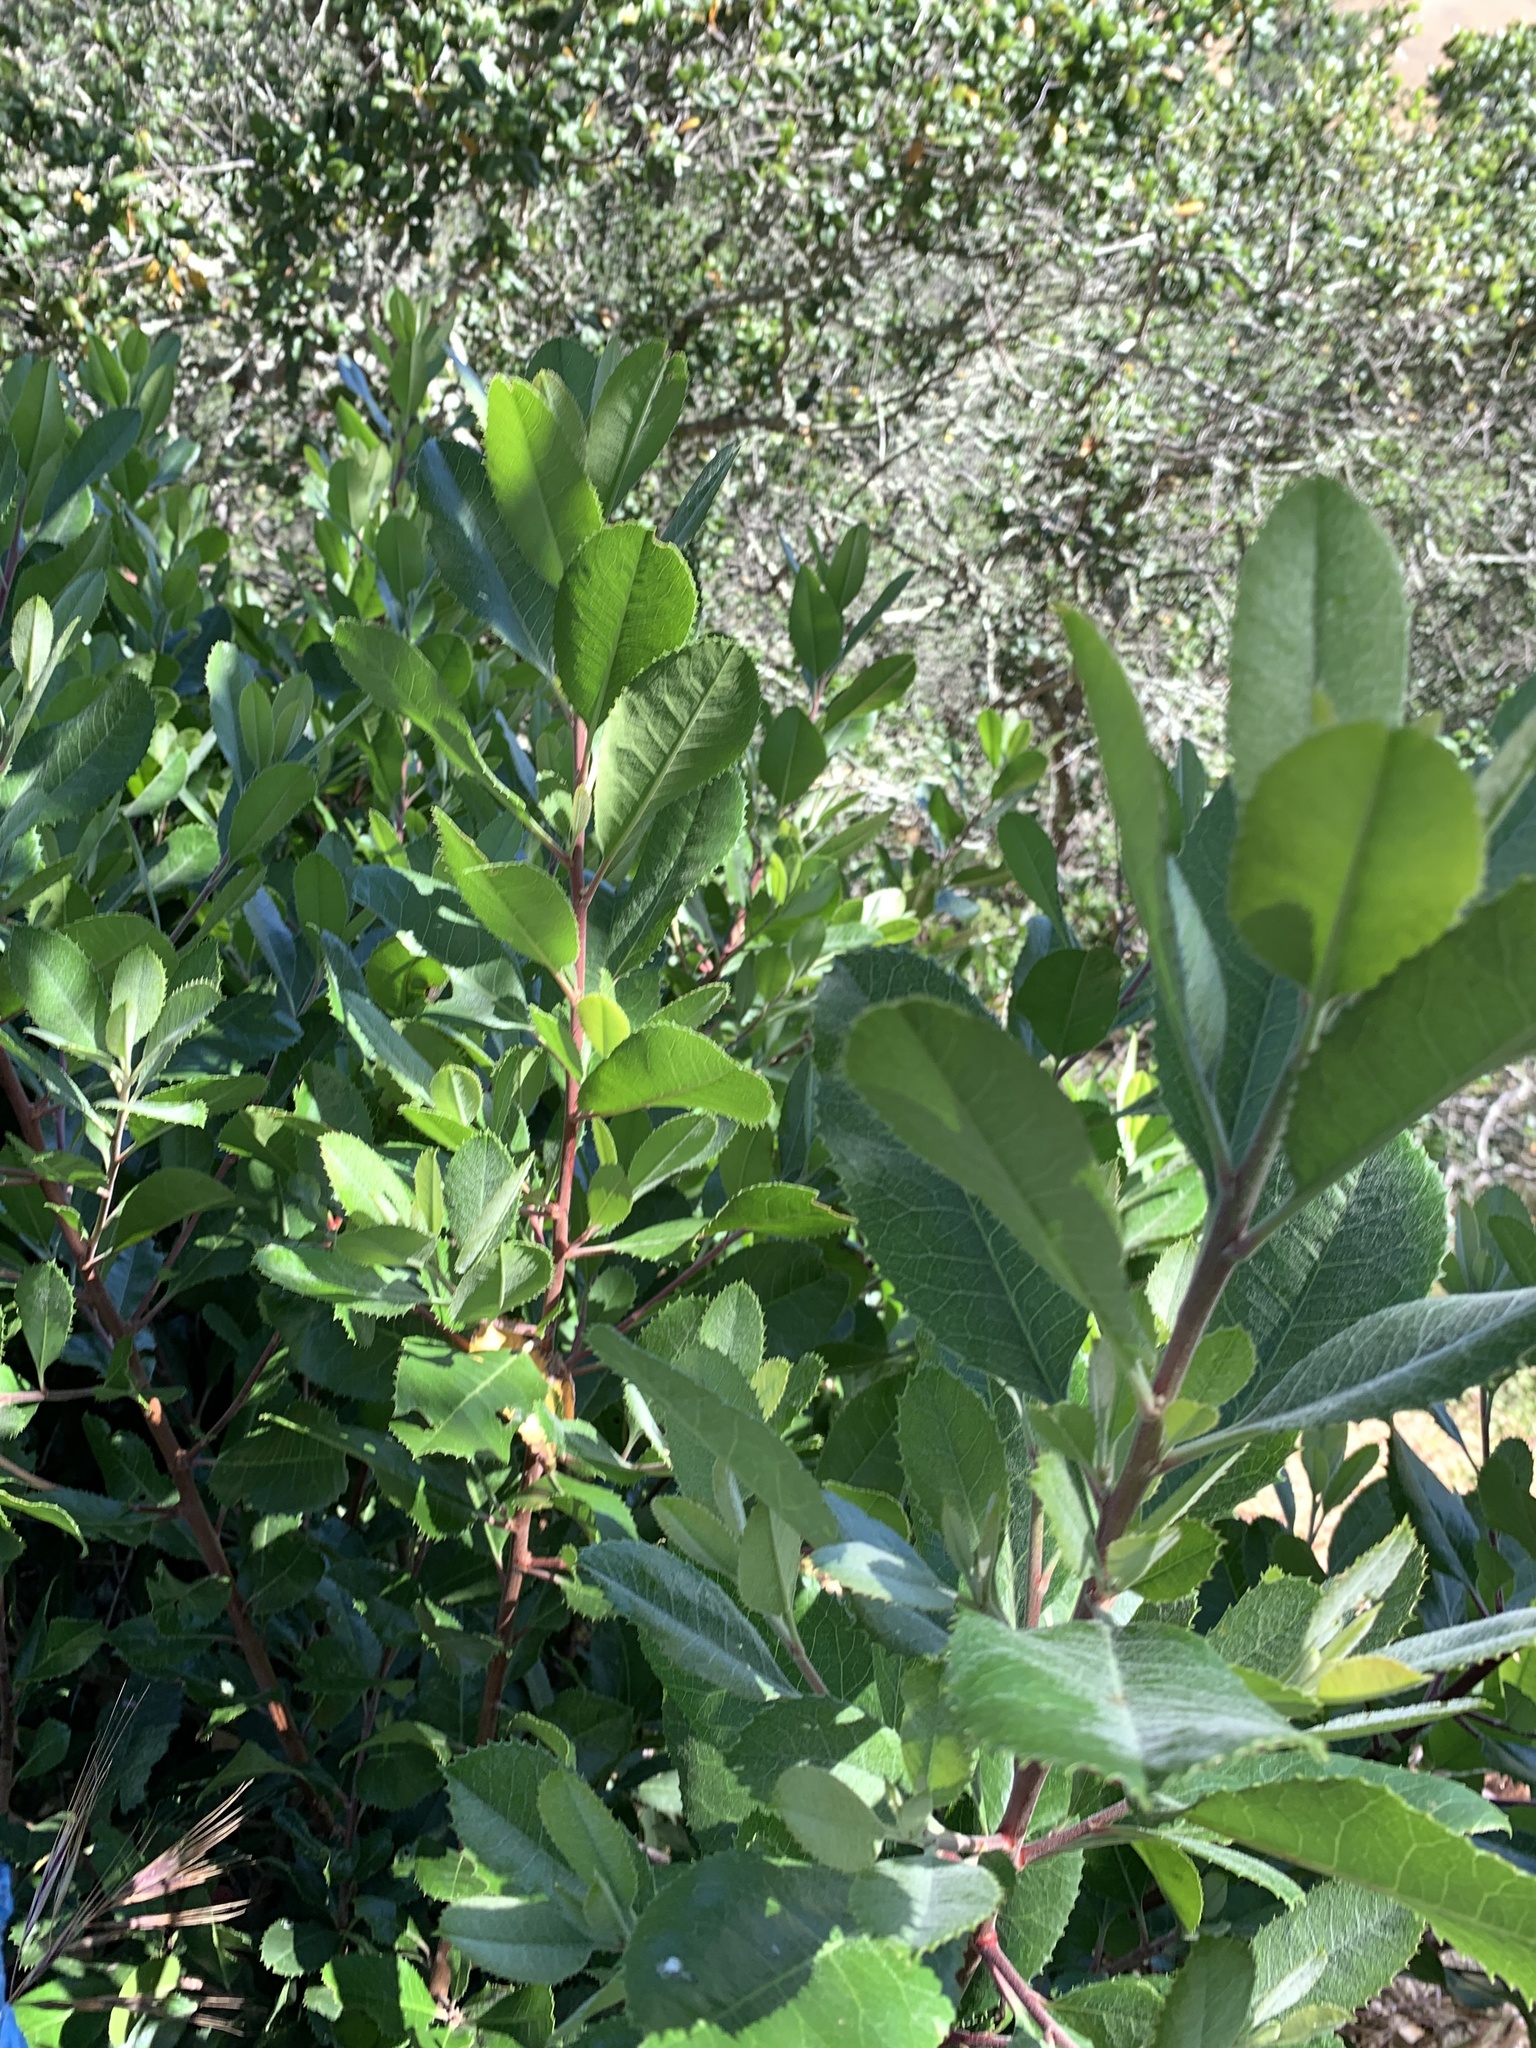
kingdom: Plantae
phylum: Tracheophyta
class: Magnoliopsida
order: Rosales
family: Rosaceae
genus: Heteromeles
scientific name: Heteromeles arbutifolia
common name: California-holly
